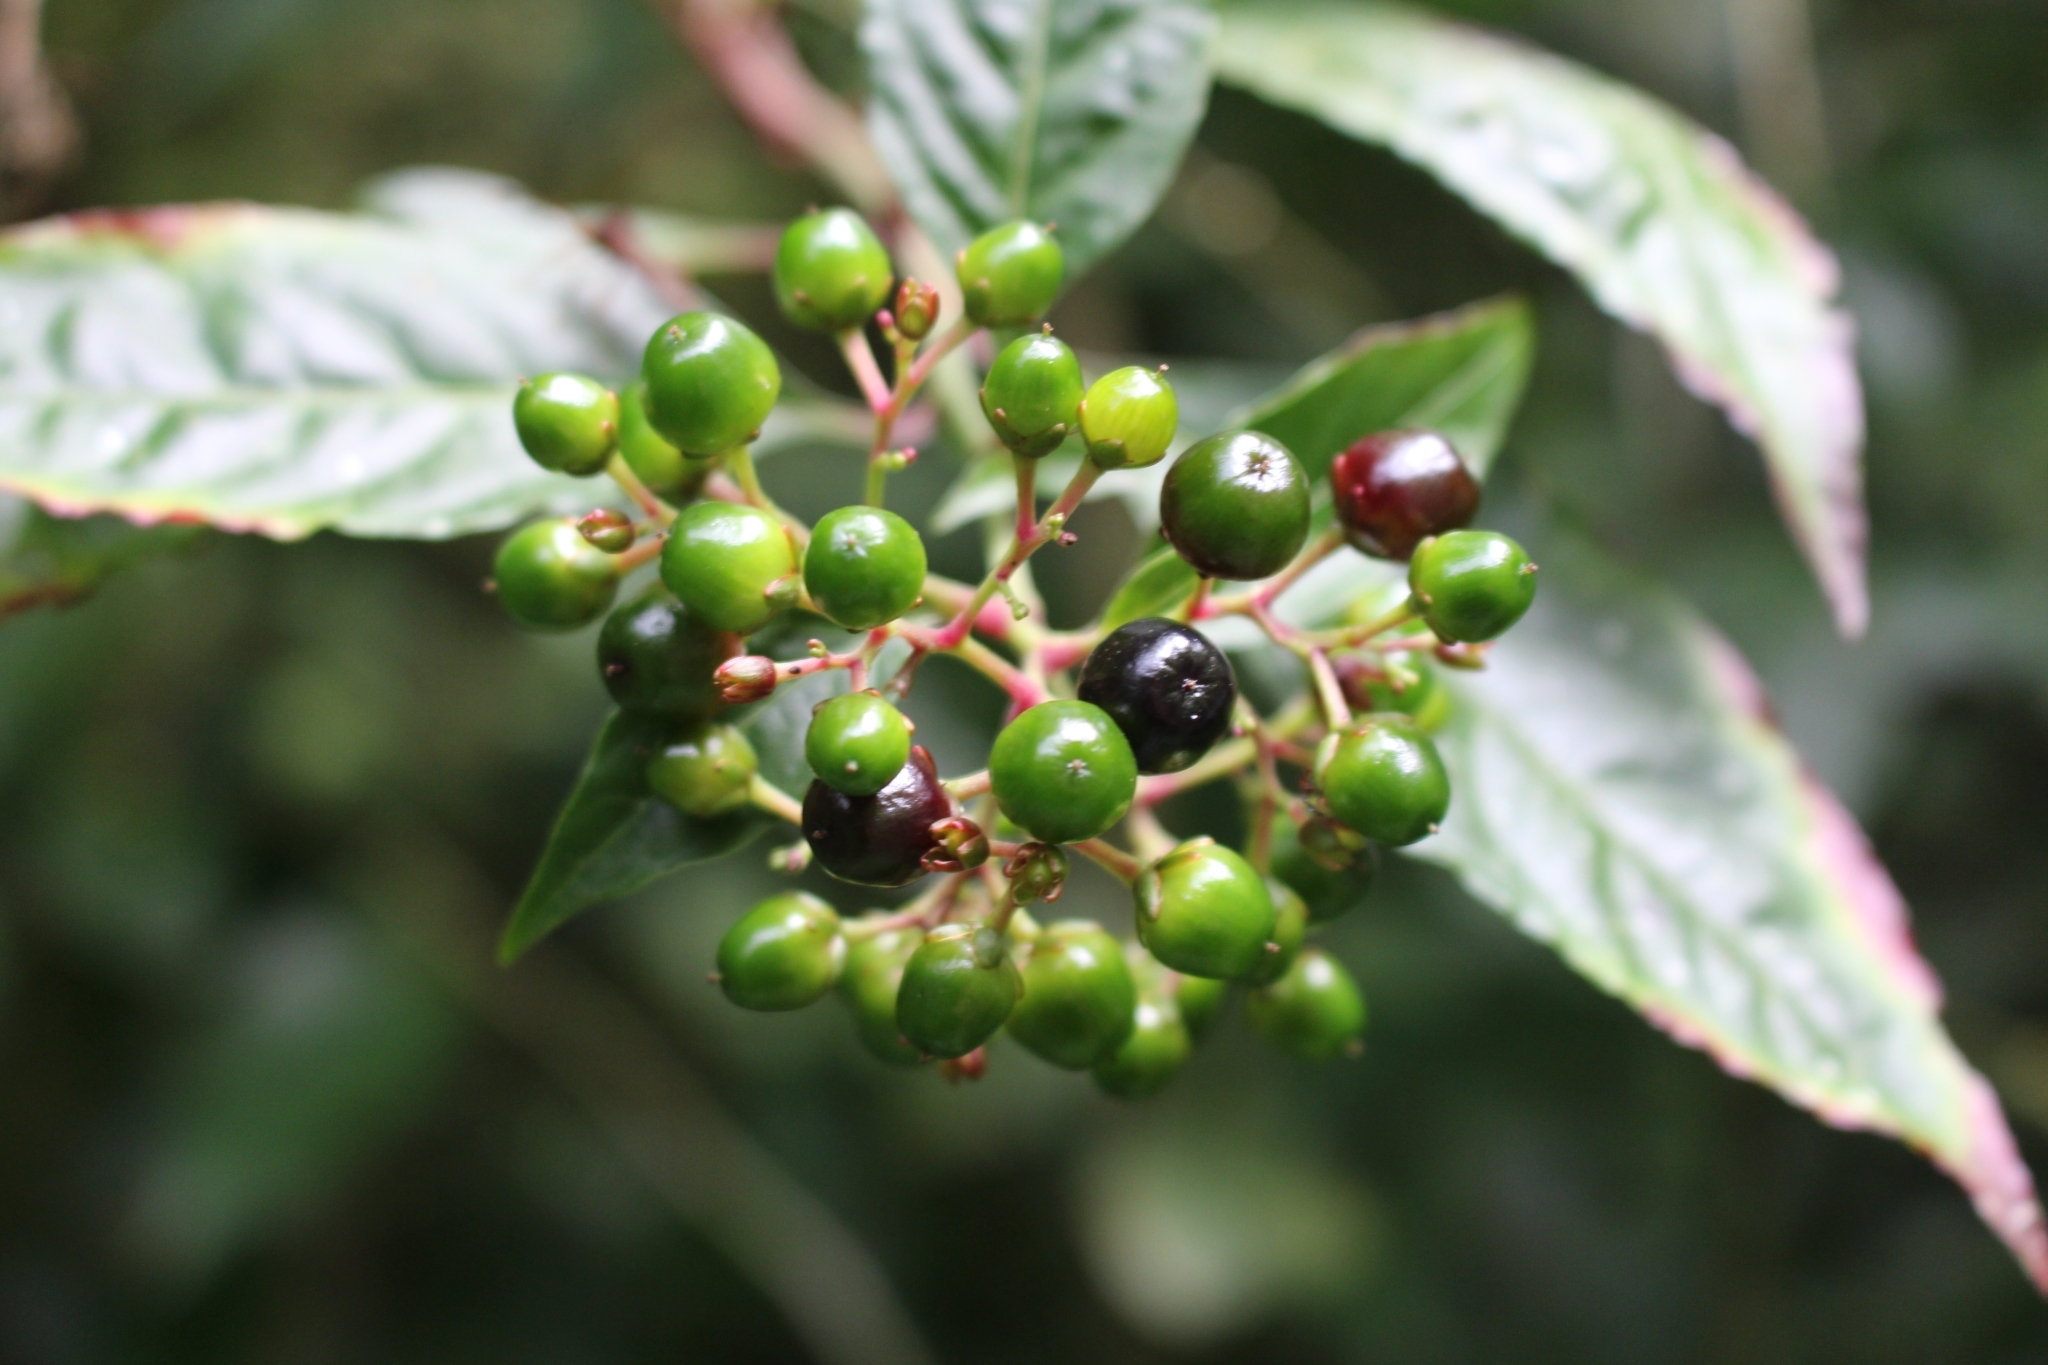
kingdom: Plantae
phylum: Tracheophyta
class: Magnoliopsida
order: Caryophyllales
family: Amaranthaceae
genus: Pleuropetalum
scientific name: Pleuropetalum sprucei
